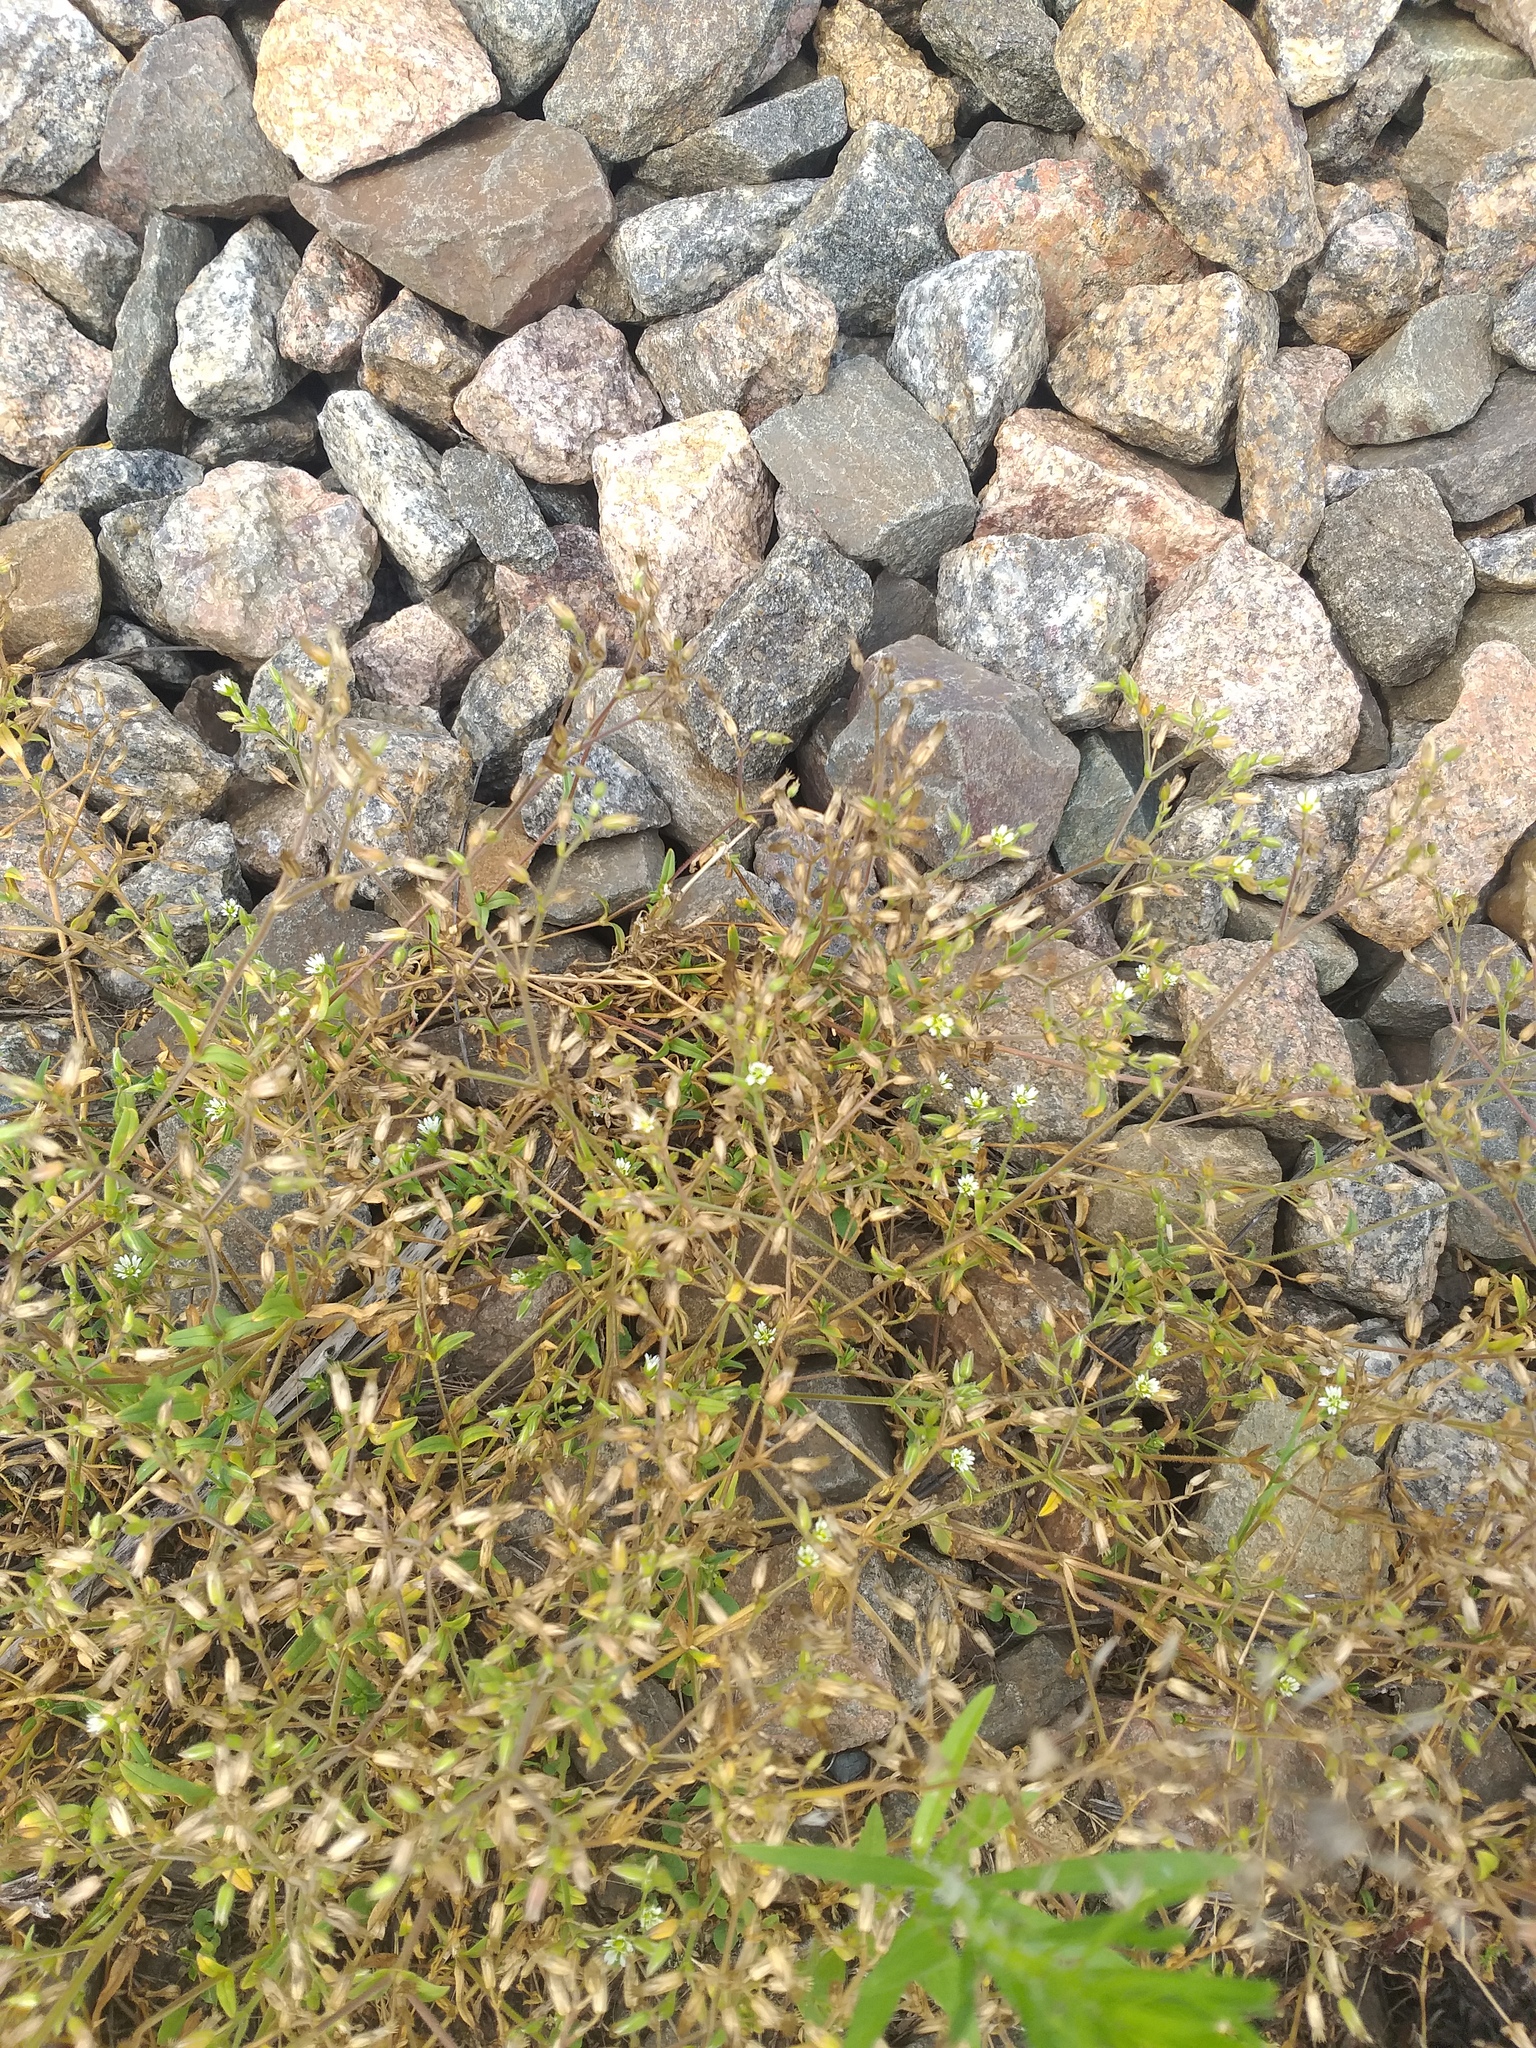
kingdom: Plantae
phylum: Tracheophyta
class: Magnoliopsida
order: Caryophyllales
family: Caryophyllaceae
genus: Cerastium
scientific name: Cerastium holosteoides
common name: Big chickweed
